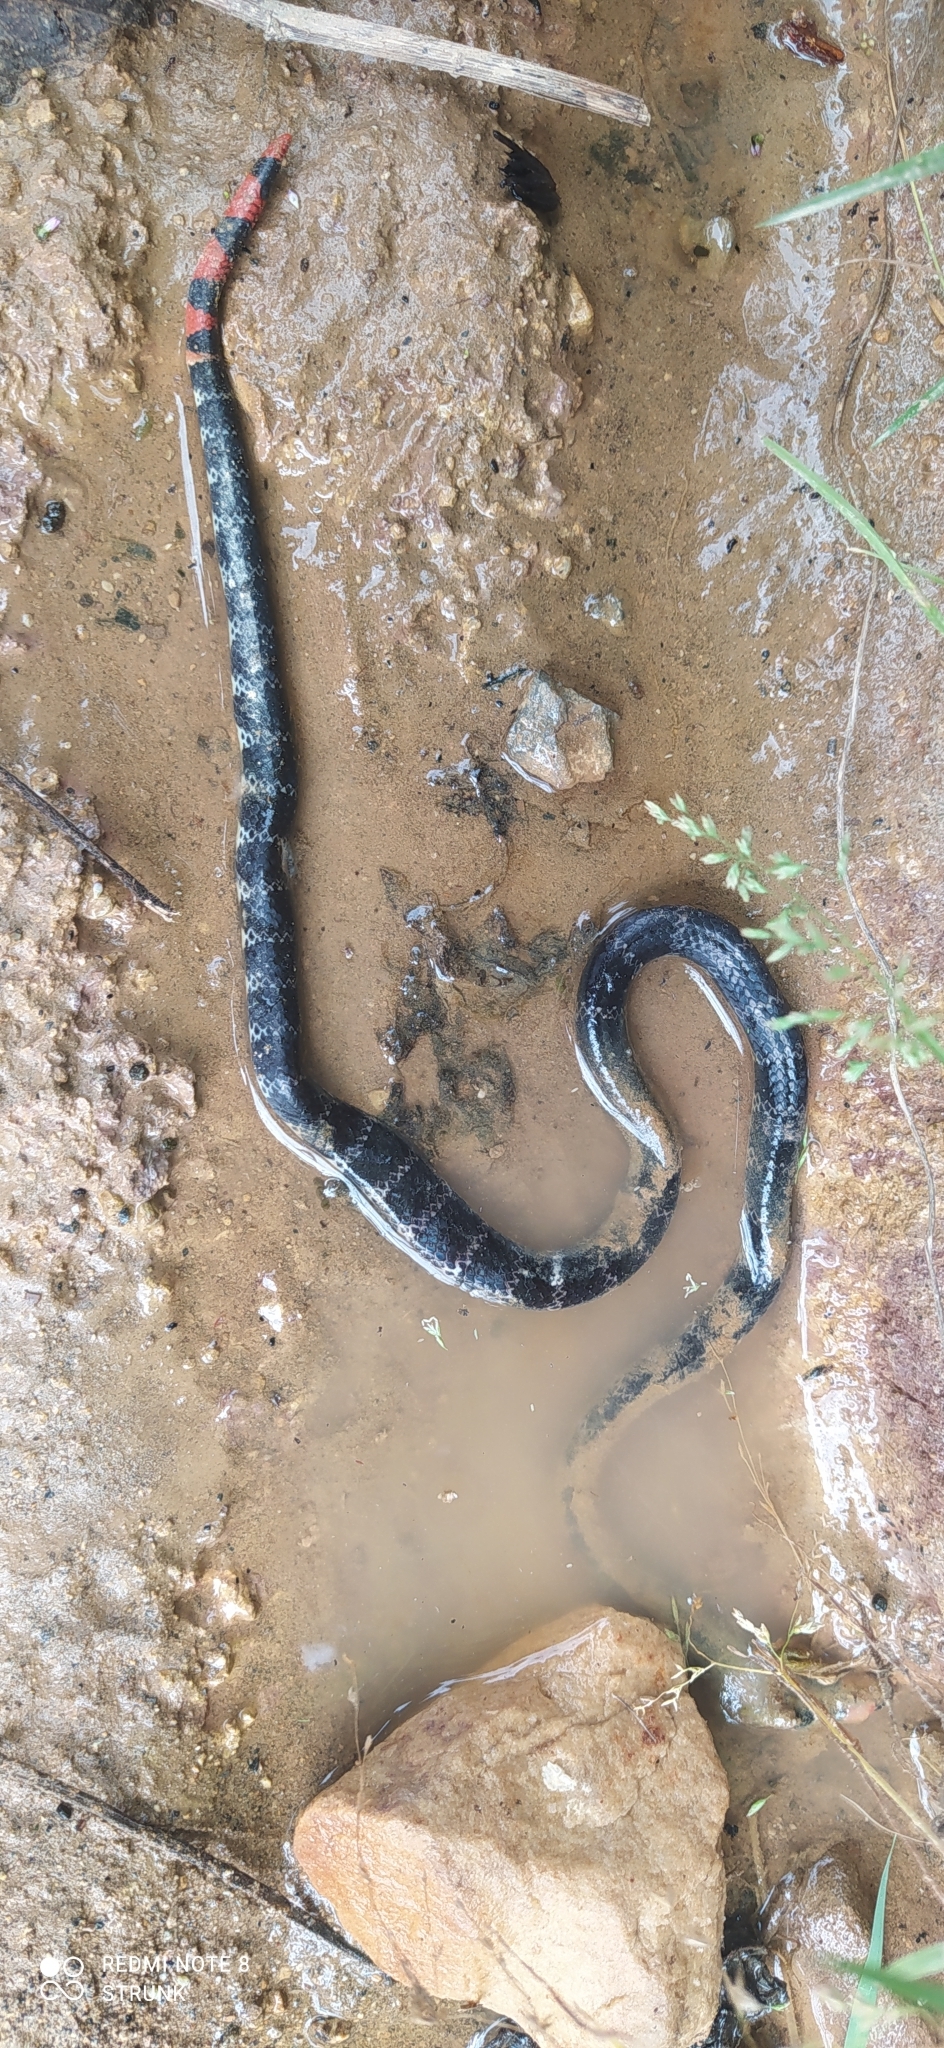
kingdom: Animalia
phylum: Chordata
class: Squamata
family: Elapidae
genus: Micrurus
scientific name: Micrurus mipartitus
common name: Redtail coral snake
